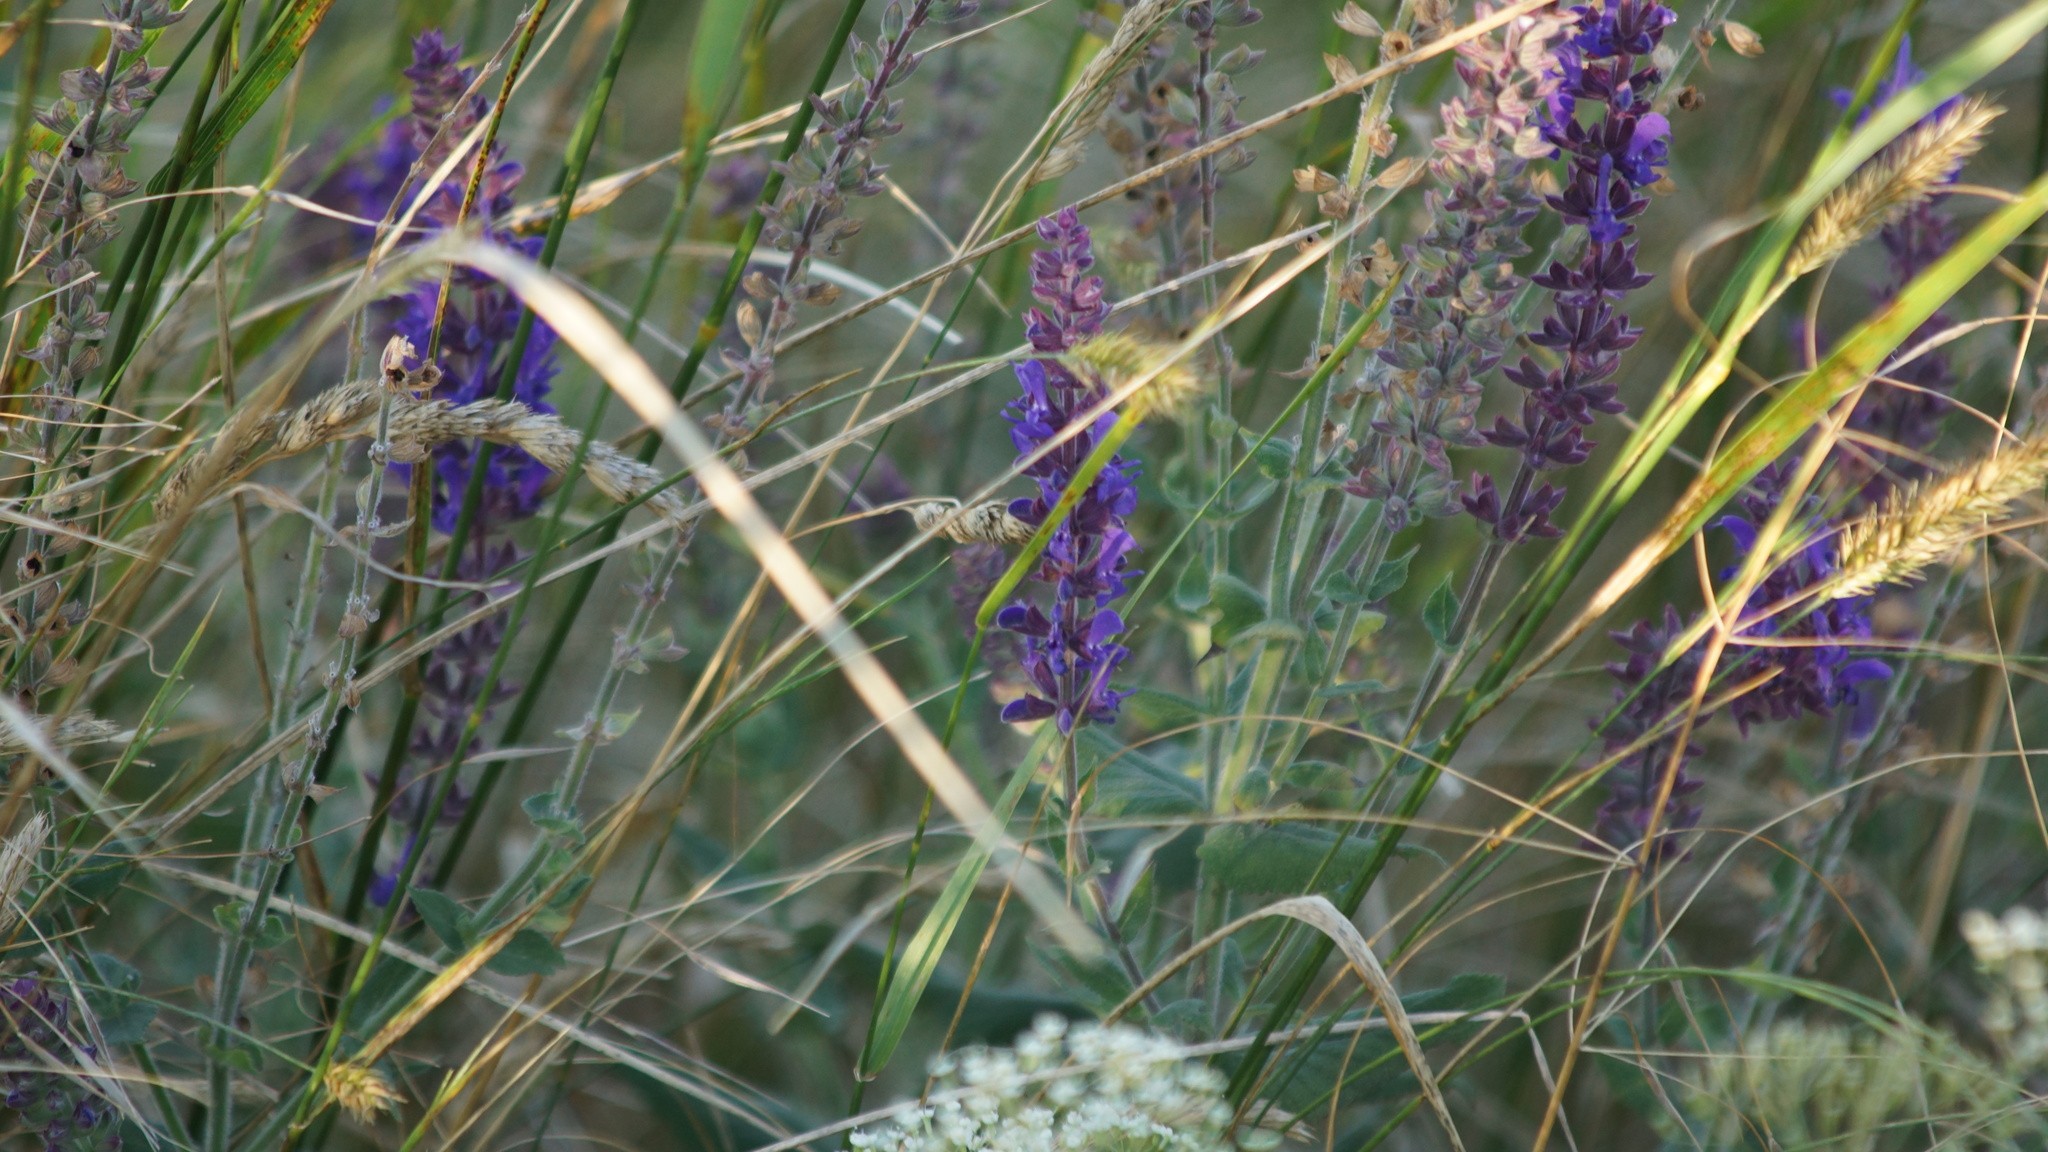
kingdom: Plantae
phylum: Tracheophyta
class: Magnoliopsida
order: Lamiales
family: Lamiaceae
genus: Salvia
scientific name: Salvia nemorosa
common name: Balkan clary
